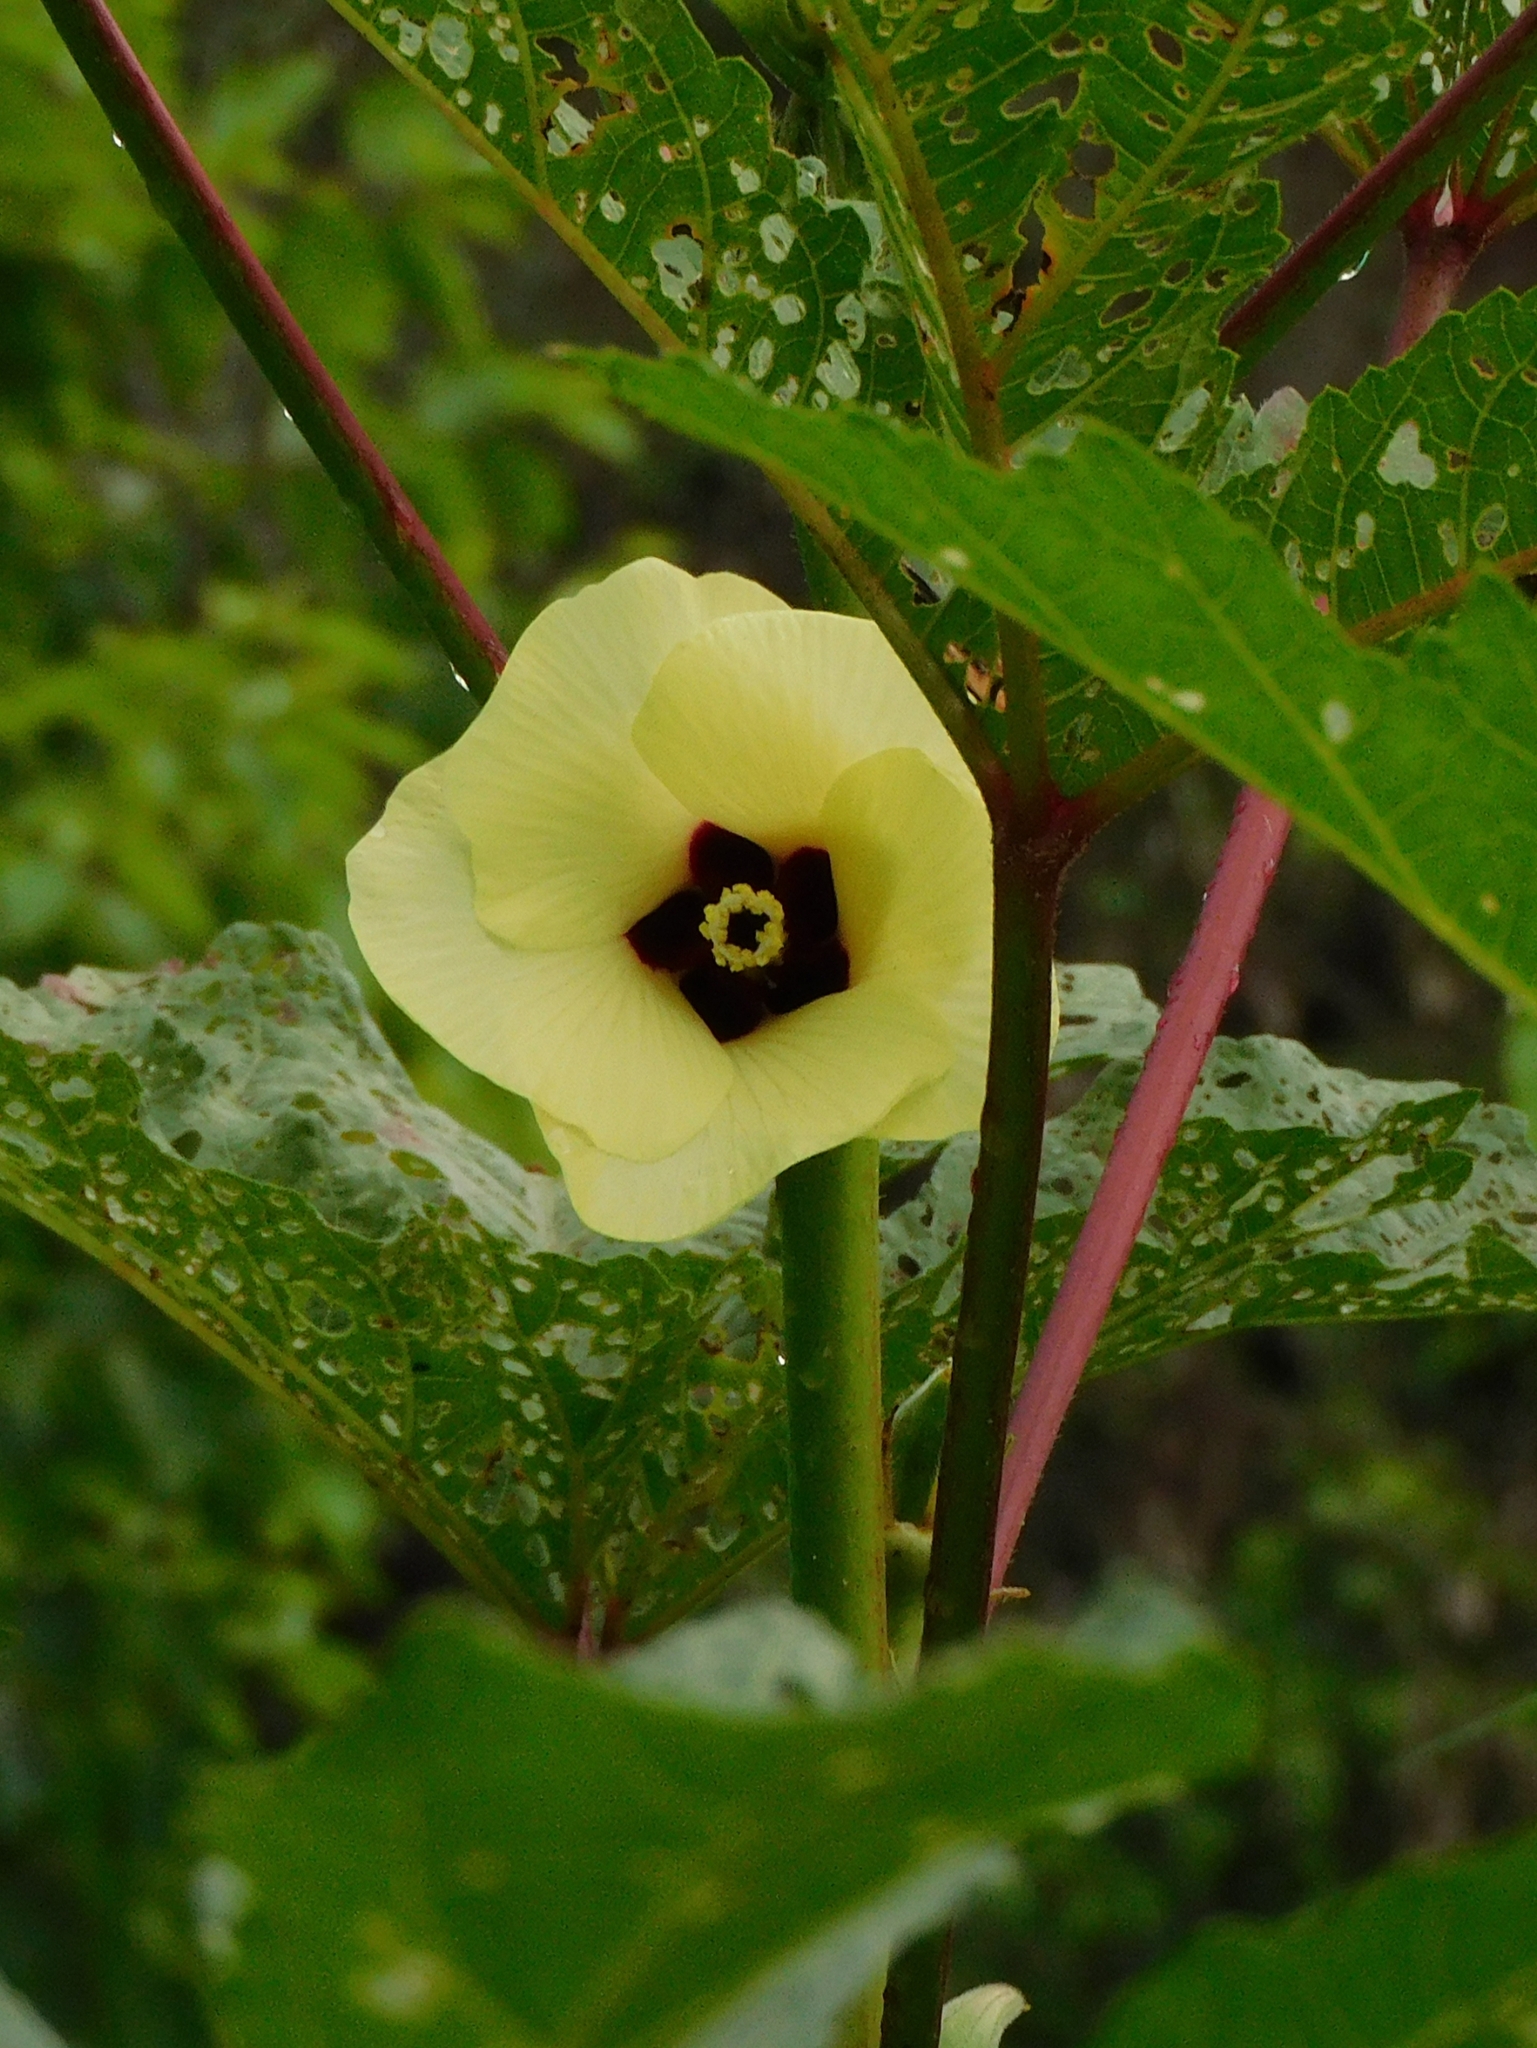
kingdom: Plantae
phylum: Tracheophyta
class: Magnoliopsida
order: Malvales
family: Malvaceae
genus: Abelmoschus
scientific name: Abelmoschus esculentus
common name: Okra
